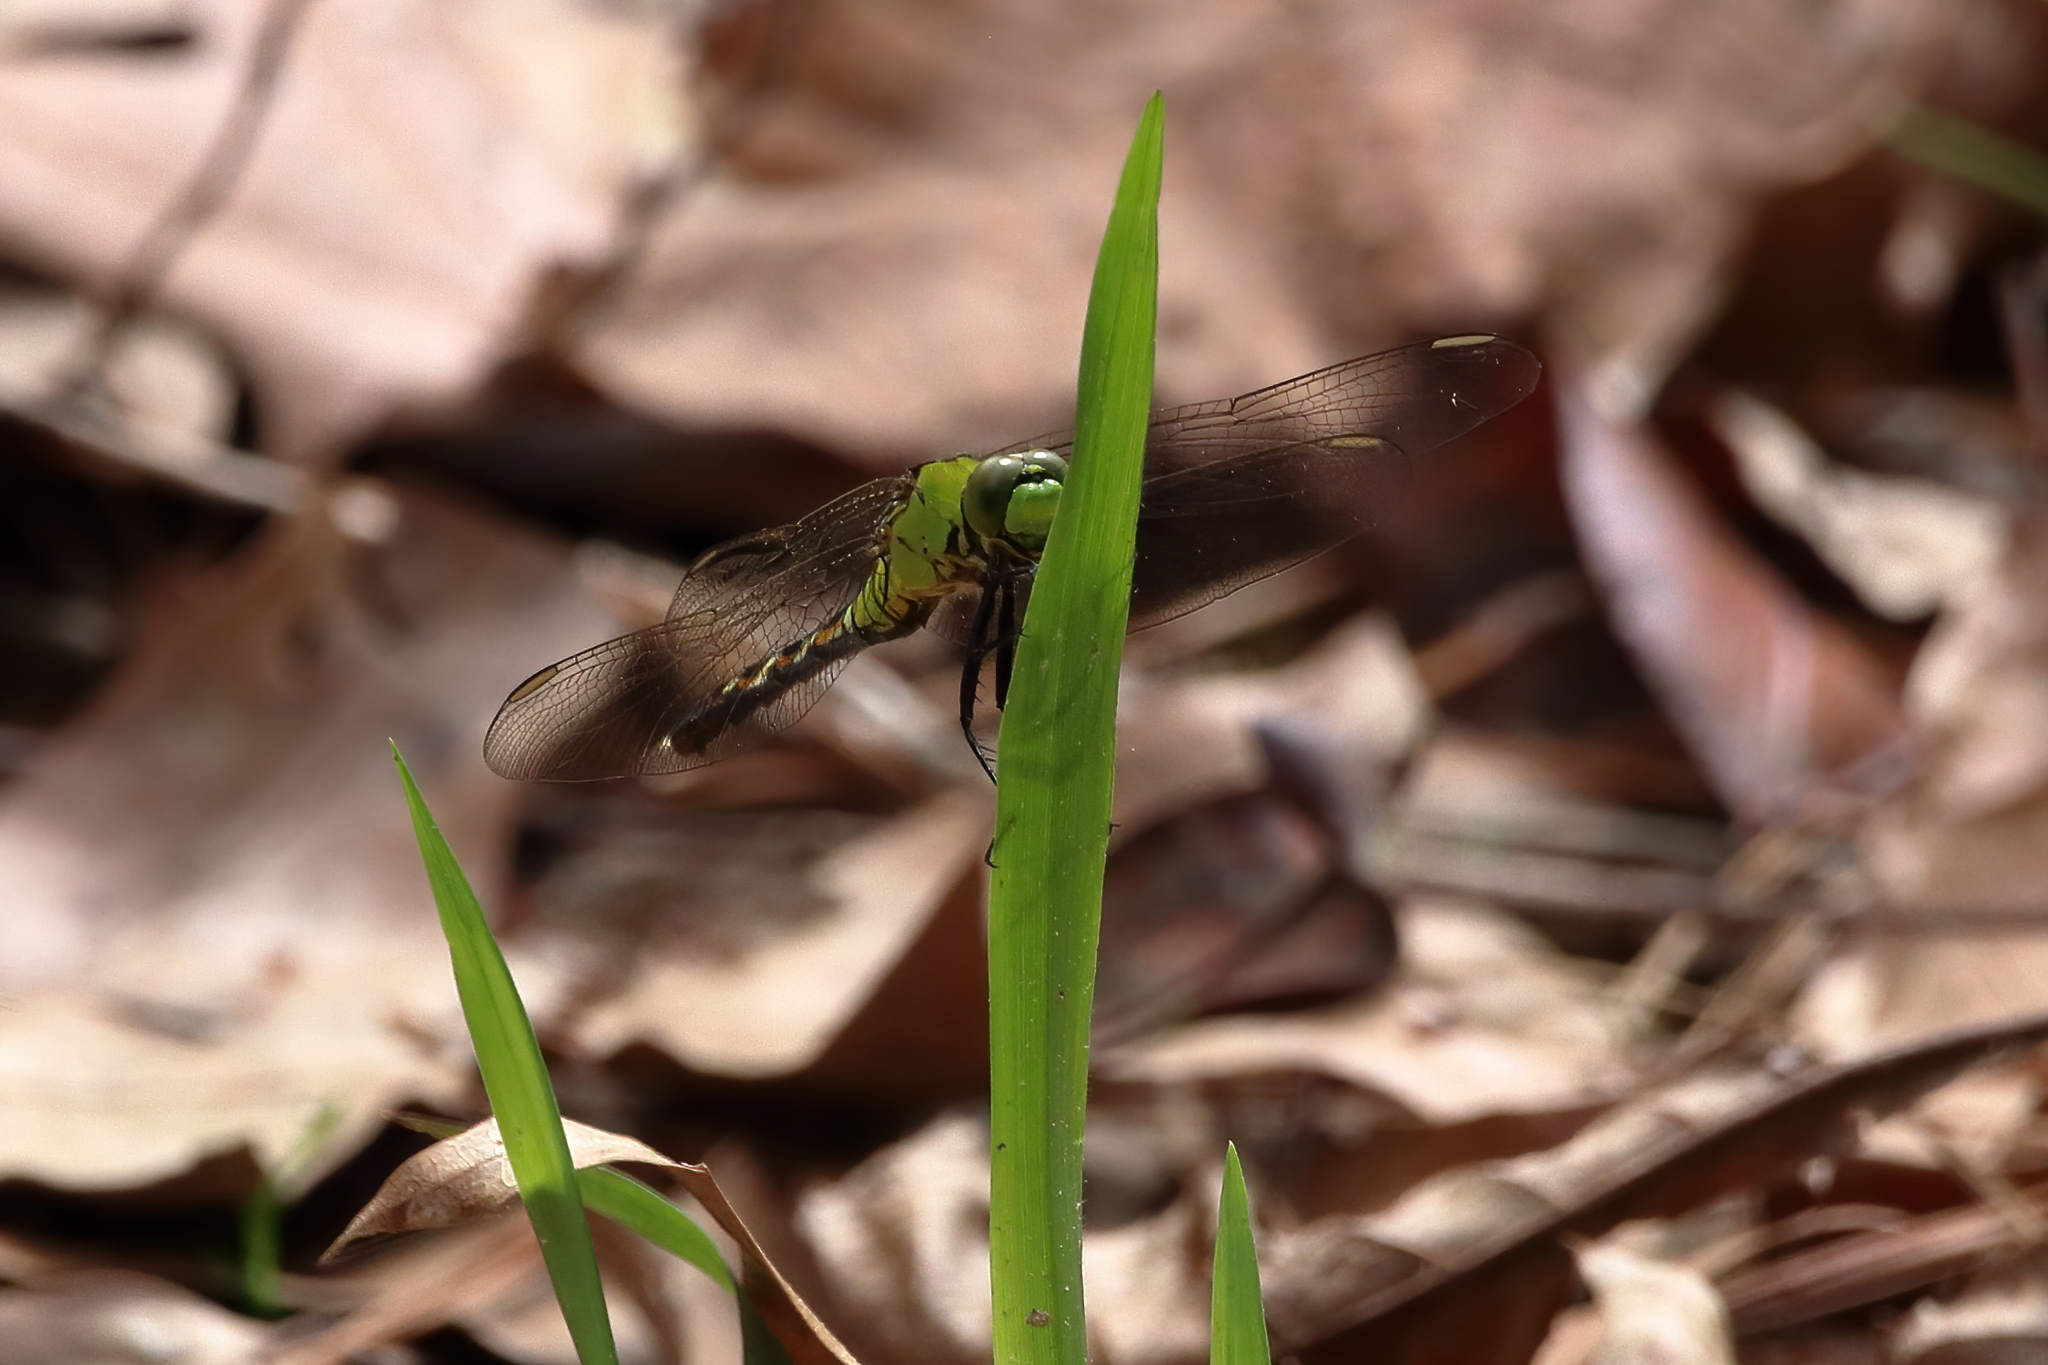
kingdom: Animalia
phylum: Arthropoda
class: Insecta
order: Odonata
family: Libellulidae
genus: Erythemis
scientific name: Erythemis simplicicollis
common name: Eastern pondhawk
